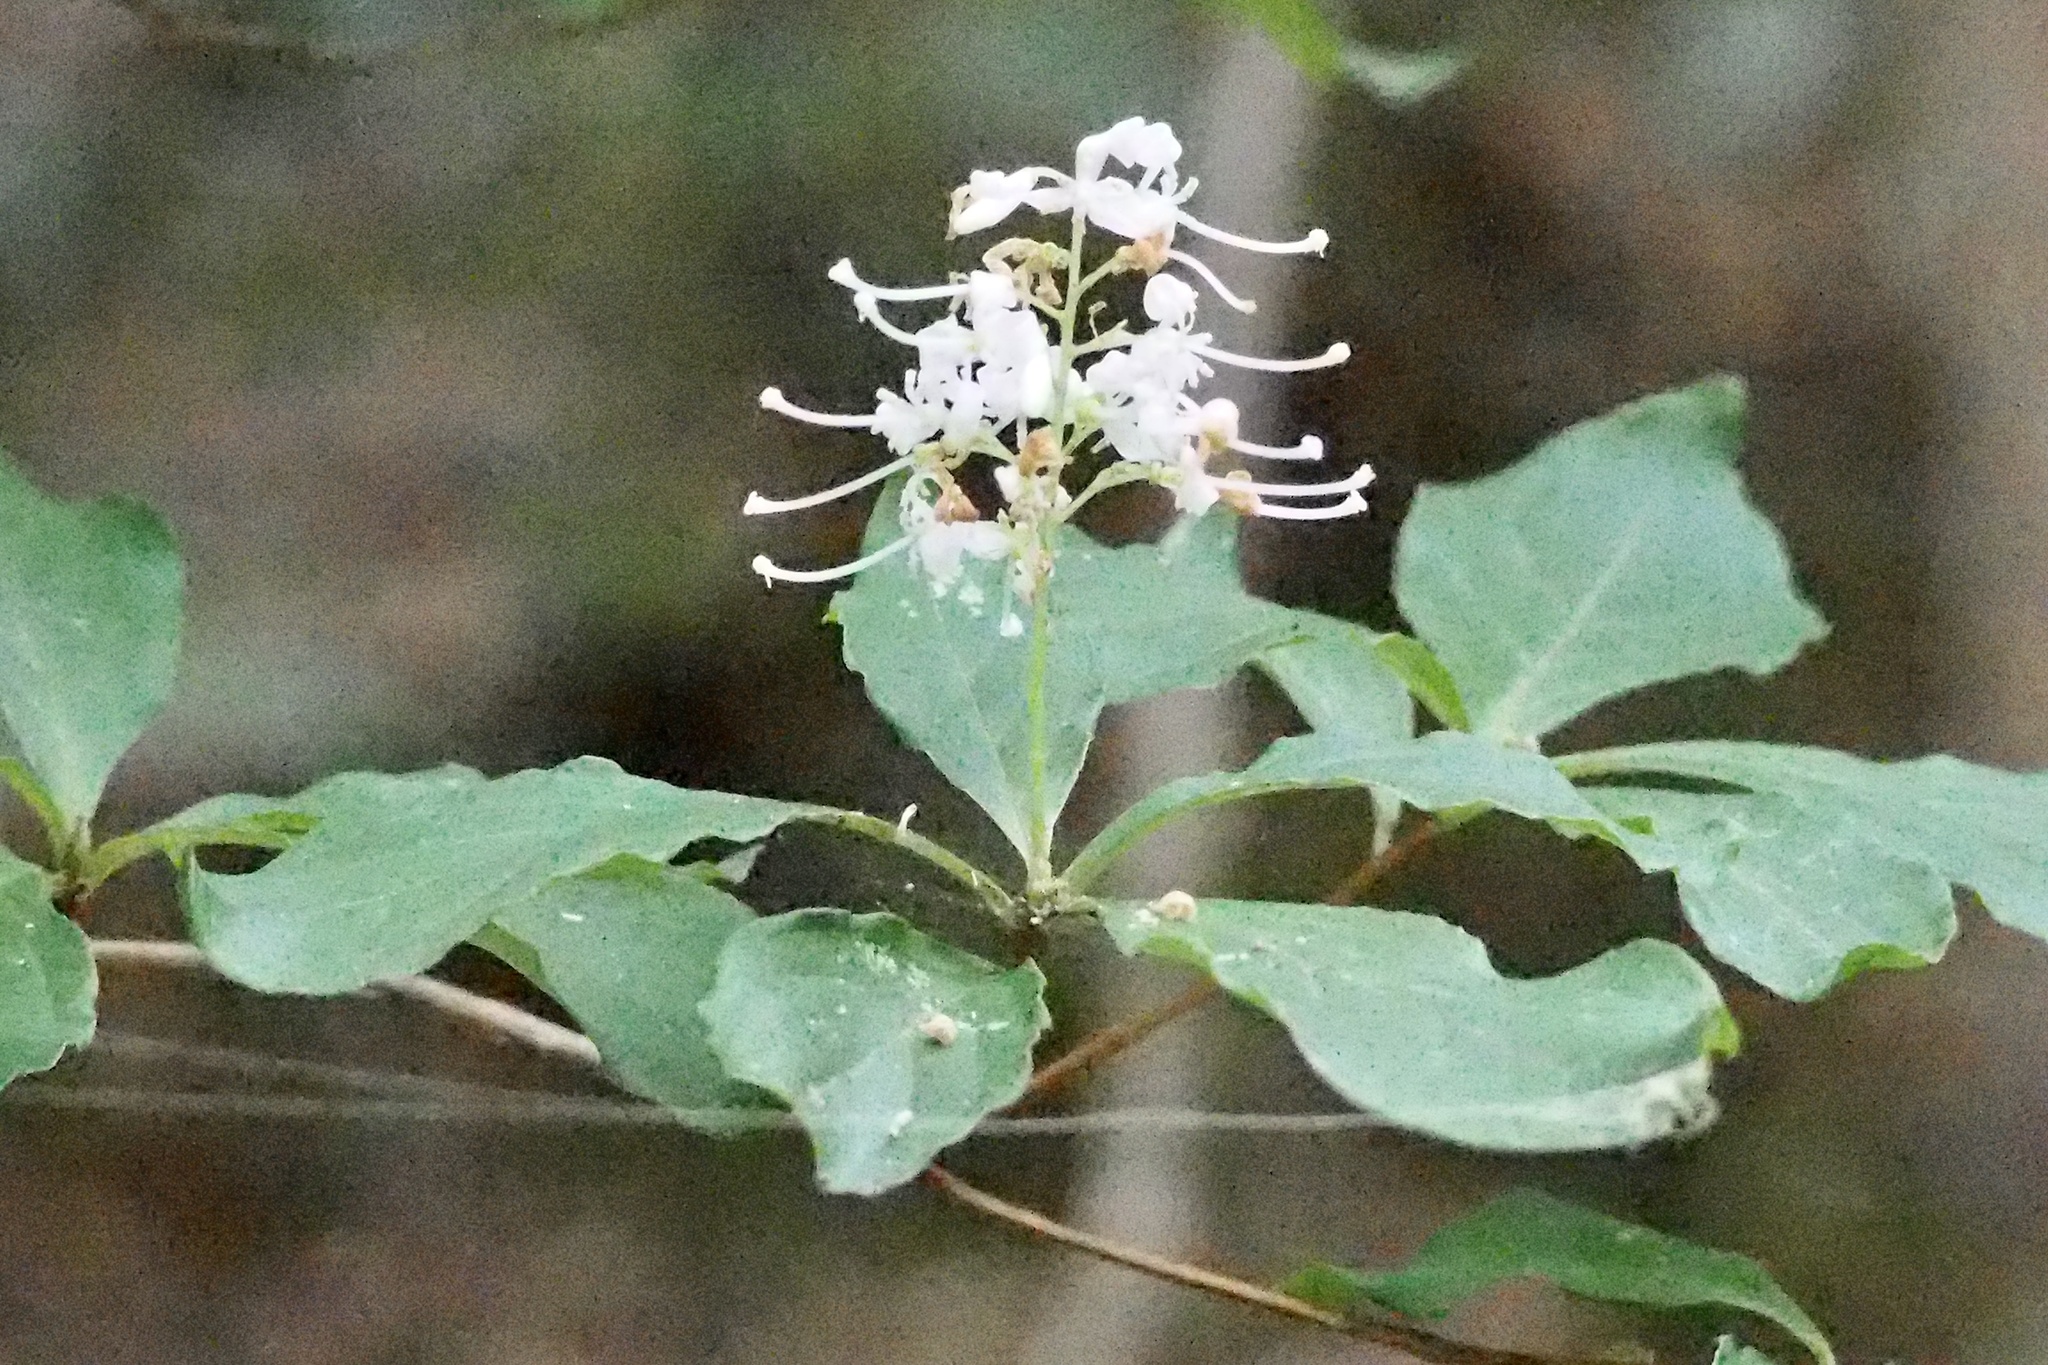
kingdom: Plantae
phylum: Tracheophyta
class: Magnoliopsida
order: Ericales
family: Ericaceae
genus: Elliottia
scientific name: Elliottia paniculata
